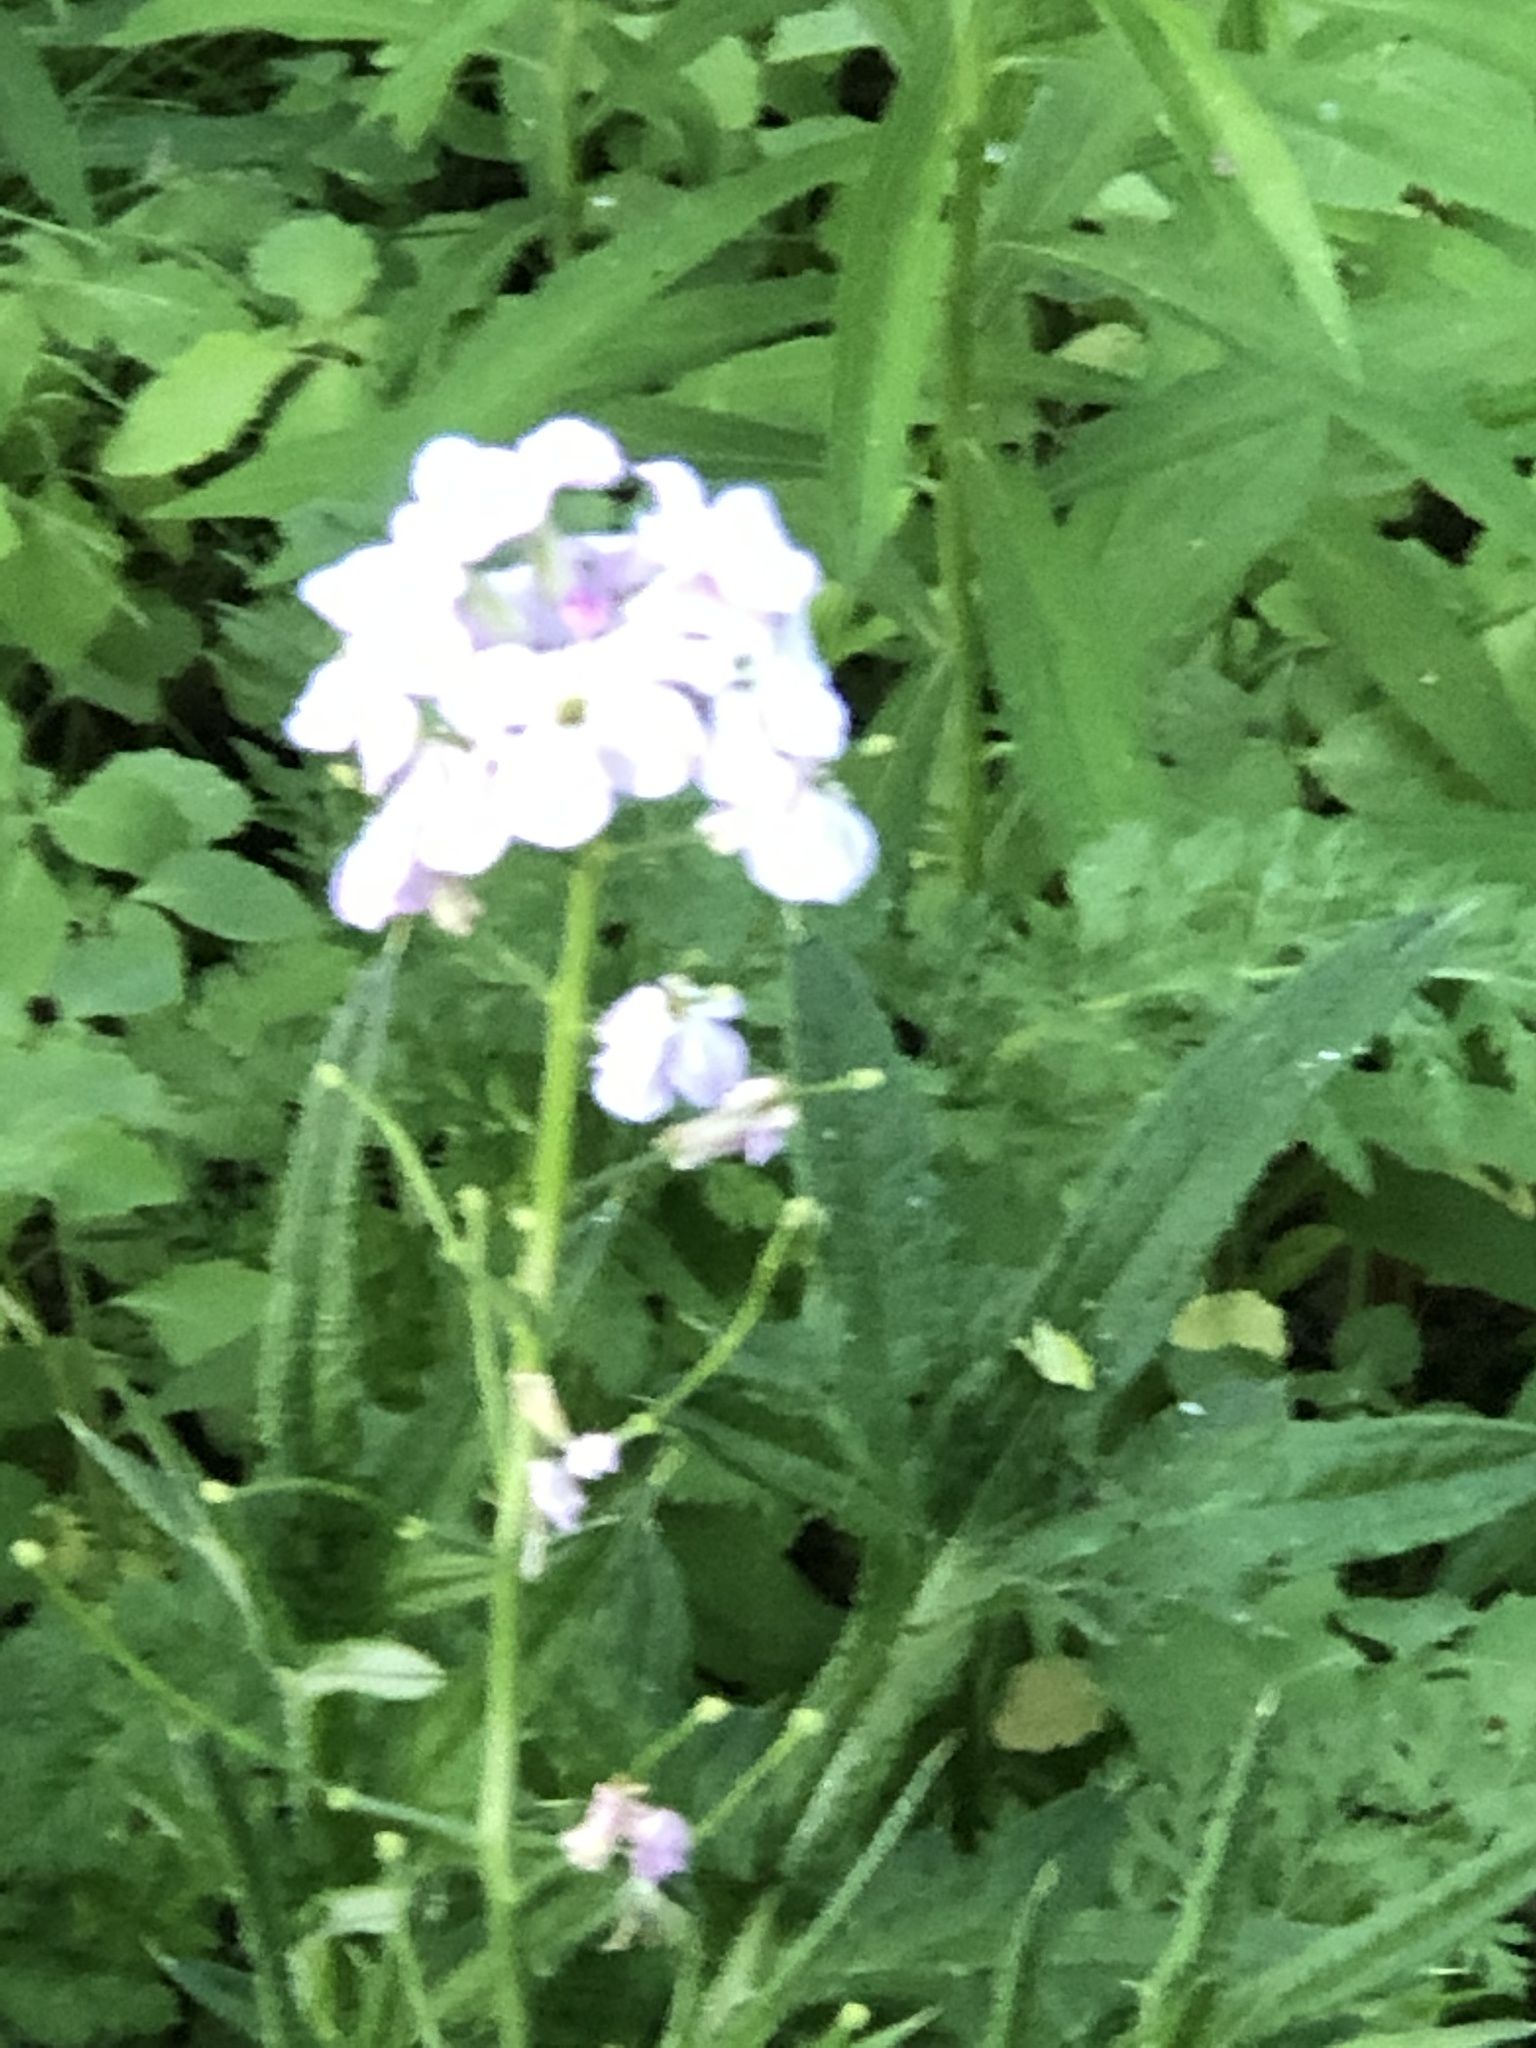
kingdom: Plantae
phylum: Tracheophyta
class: Magnoliopsida
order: Brassicales
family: Brassicaceae
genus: Hesperis
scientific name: Hesperis matronalis
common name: Dame's-violet
